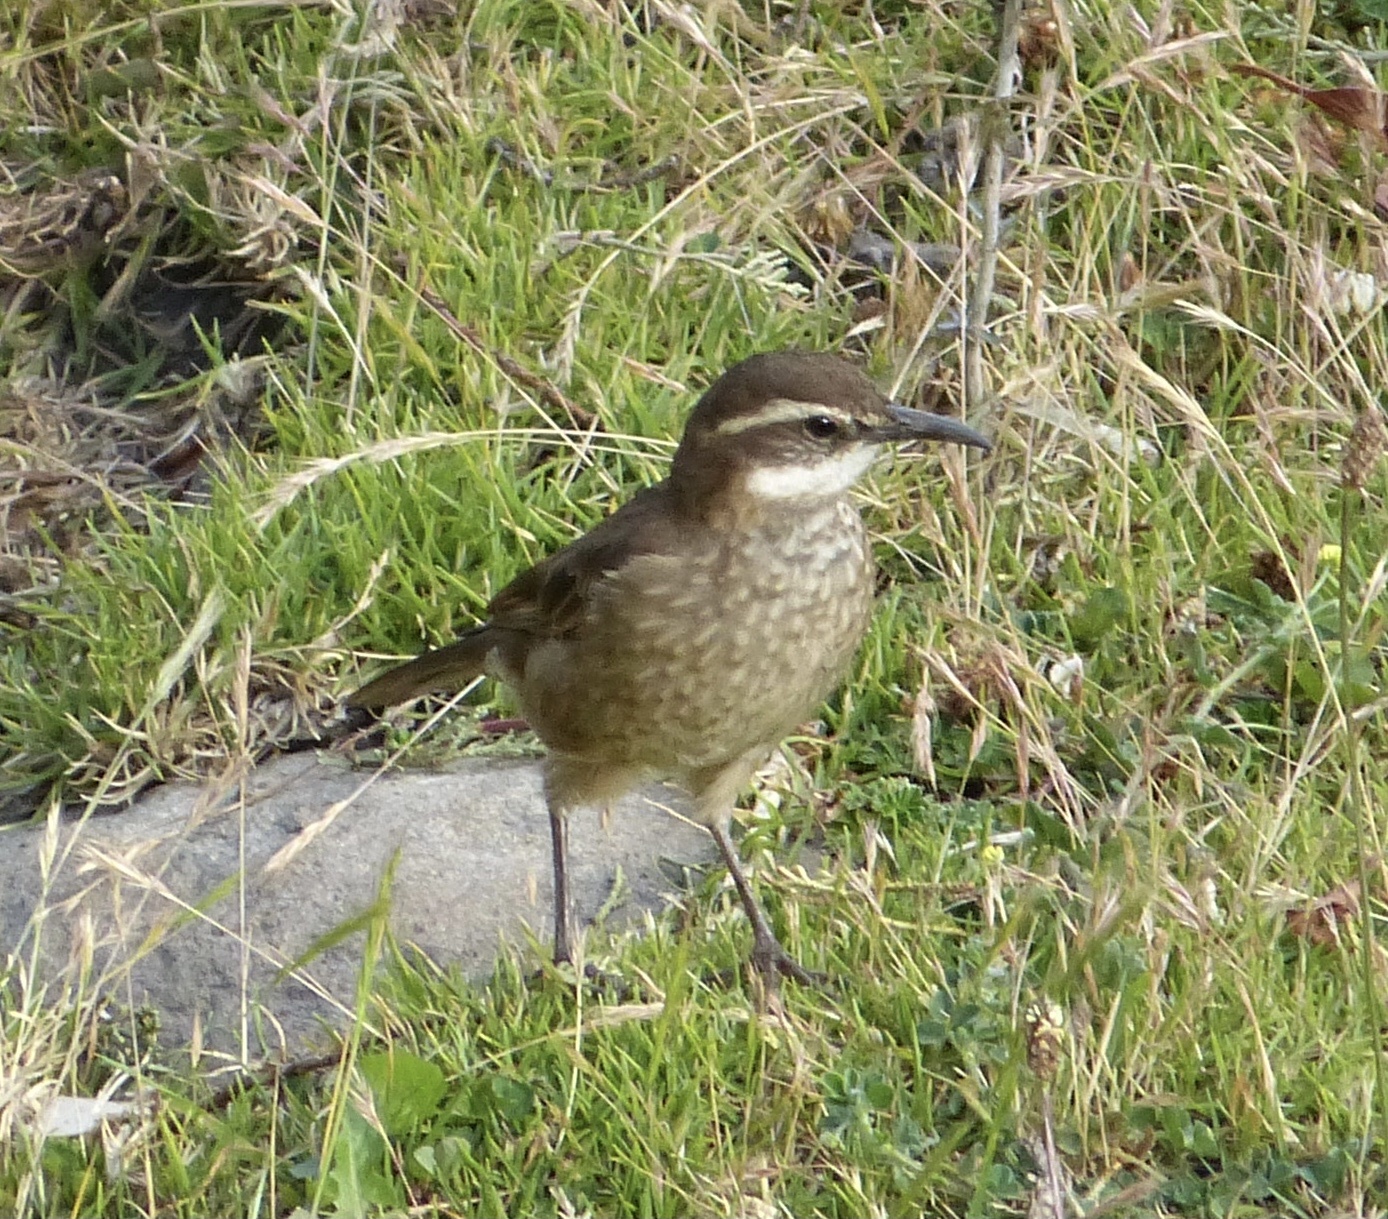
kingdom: Animalia
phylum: Chordata
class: Aves
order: Passeriformes
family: Furnariidae
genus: Cinclodes
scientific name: Cinclodes excelsior
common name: Stout-billed cinclodes
